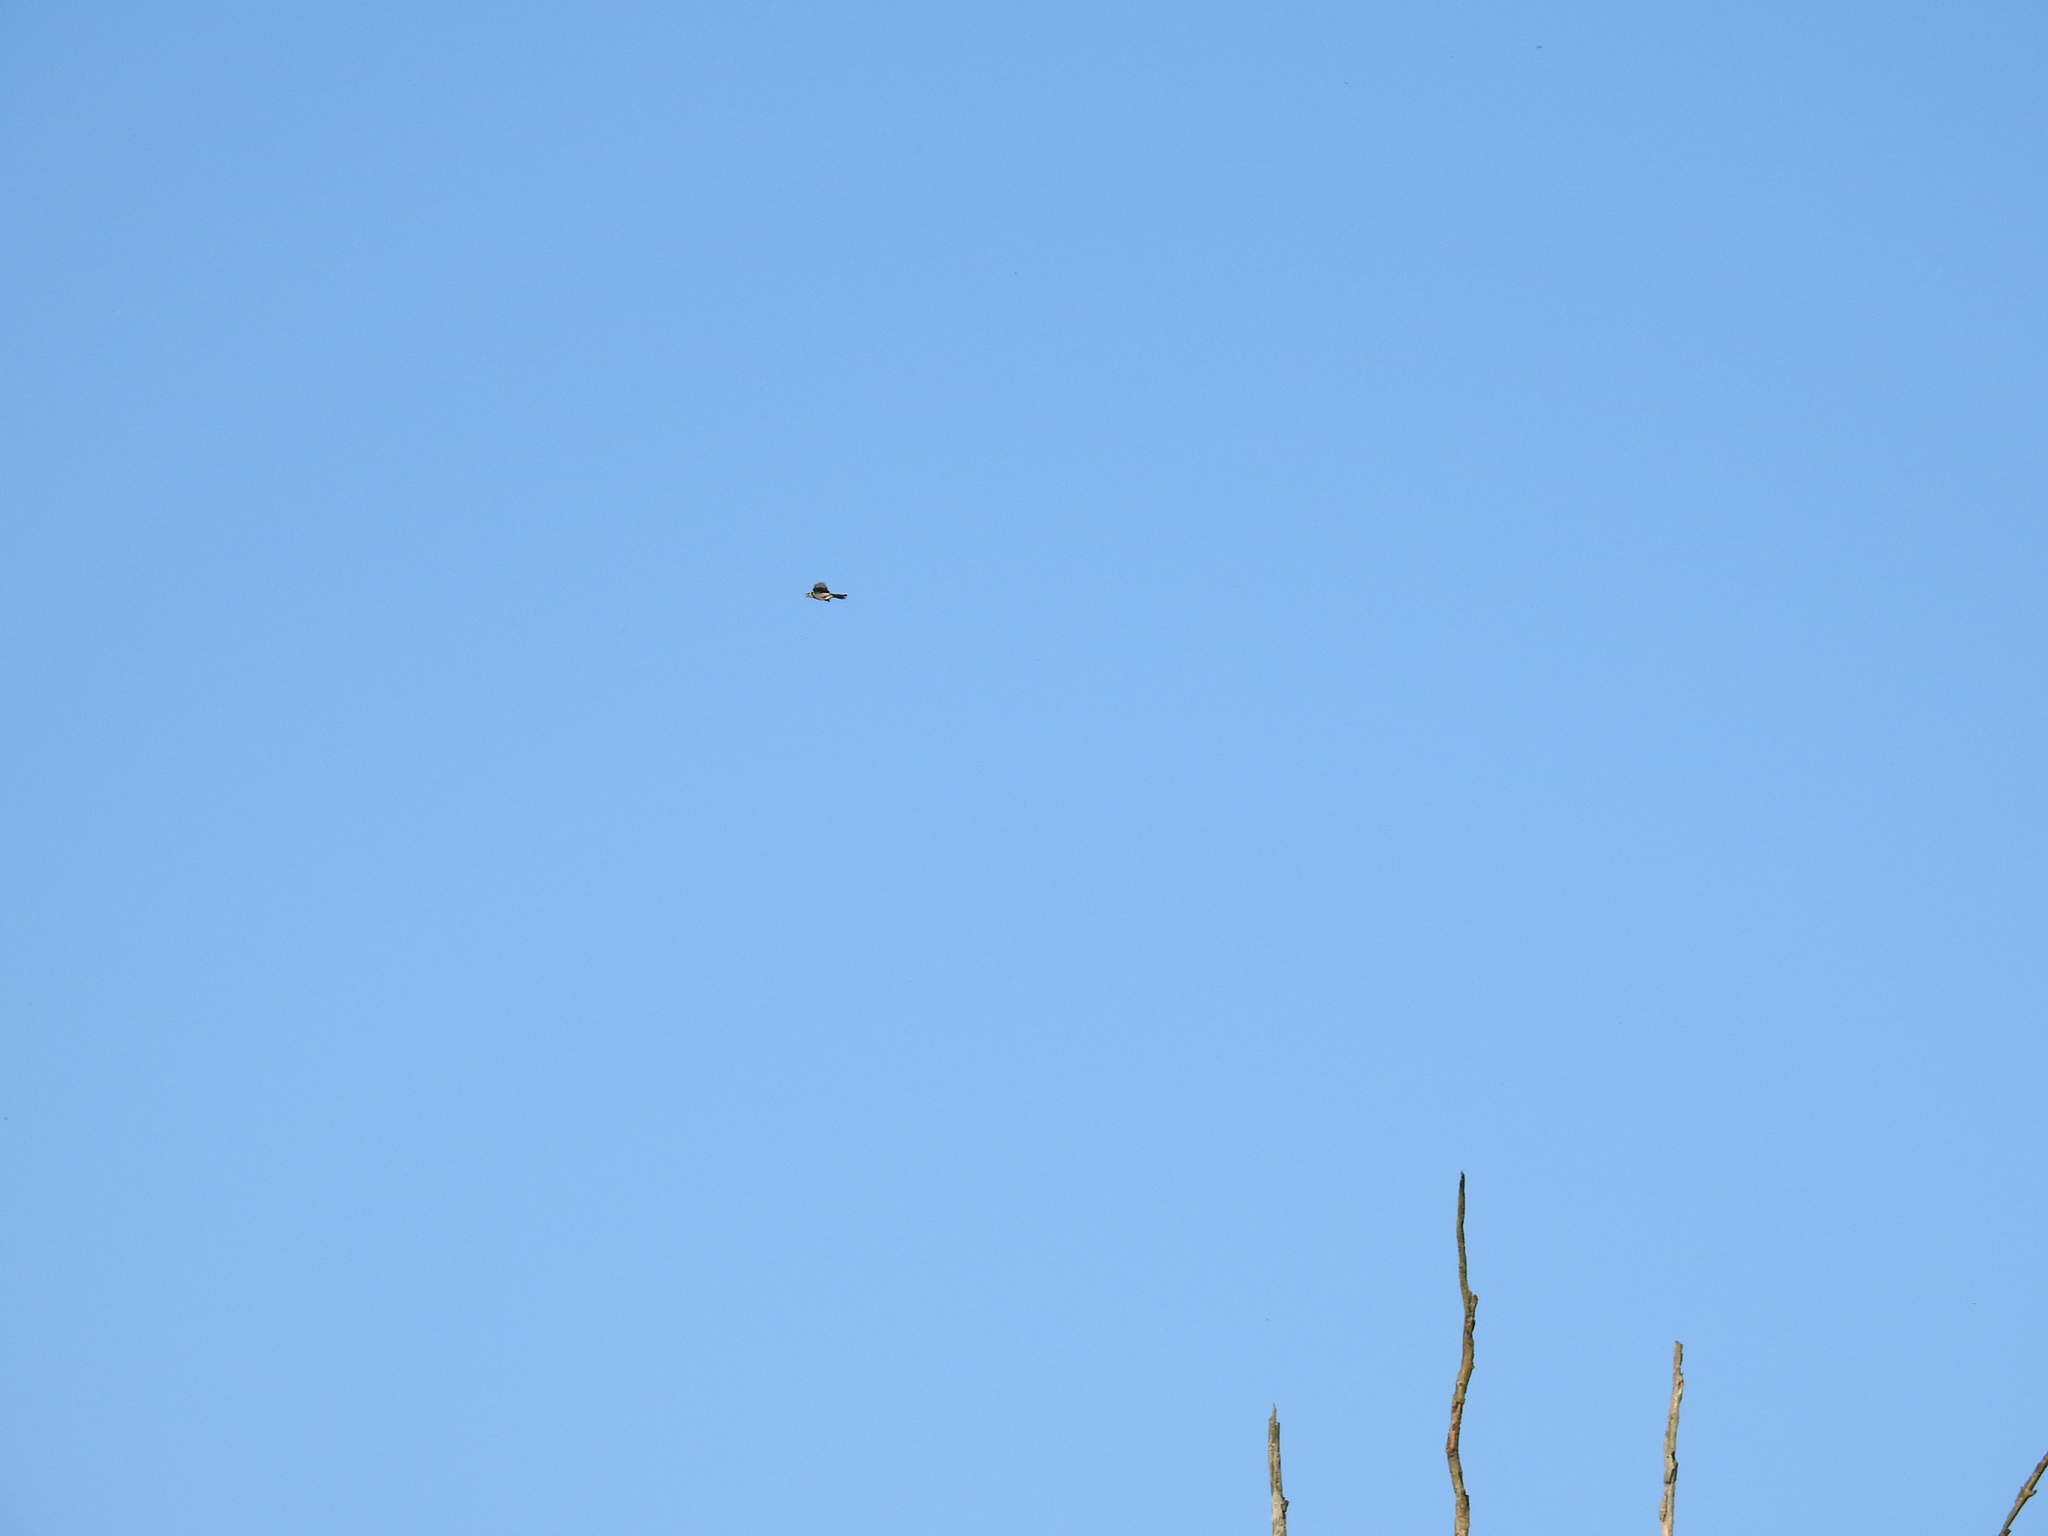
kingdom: Animalia
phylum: Chordata
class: Aves
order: Passeriformes
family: Corvidae
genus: Cyanocitta
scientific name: Cyanocitta cristata
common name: Blue jay
